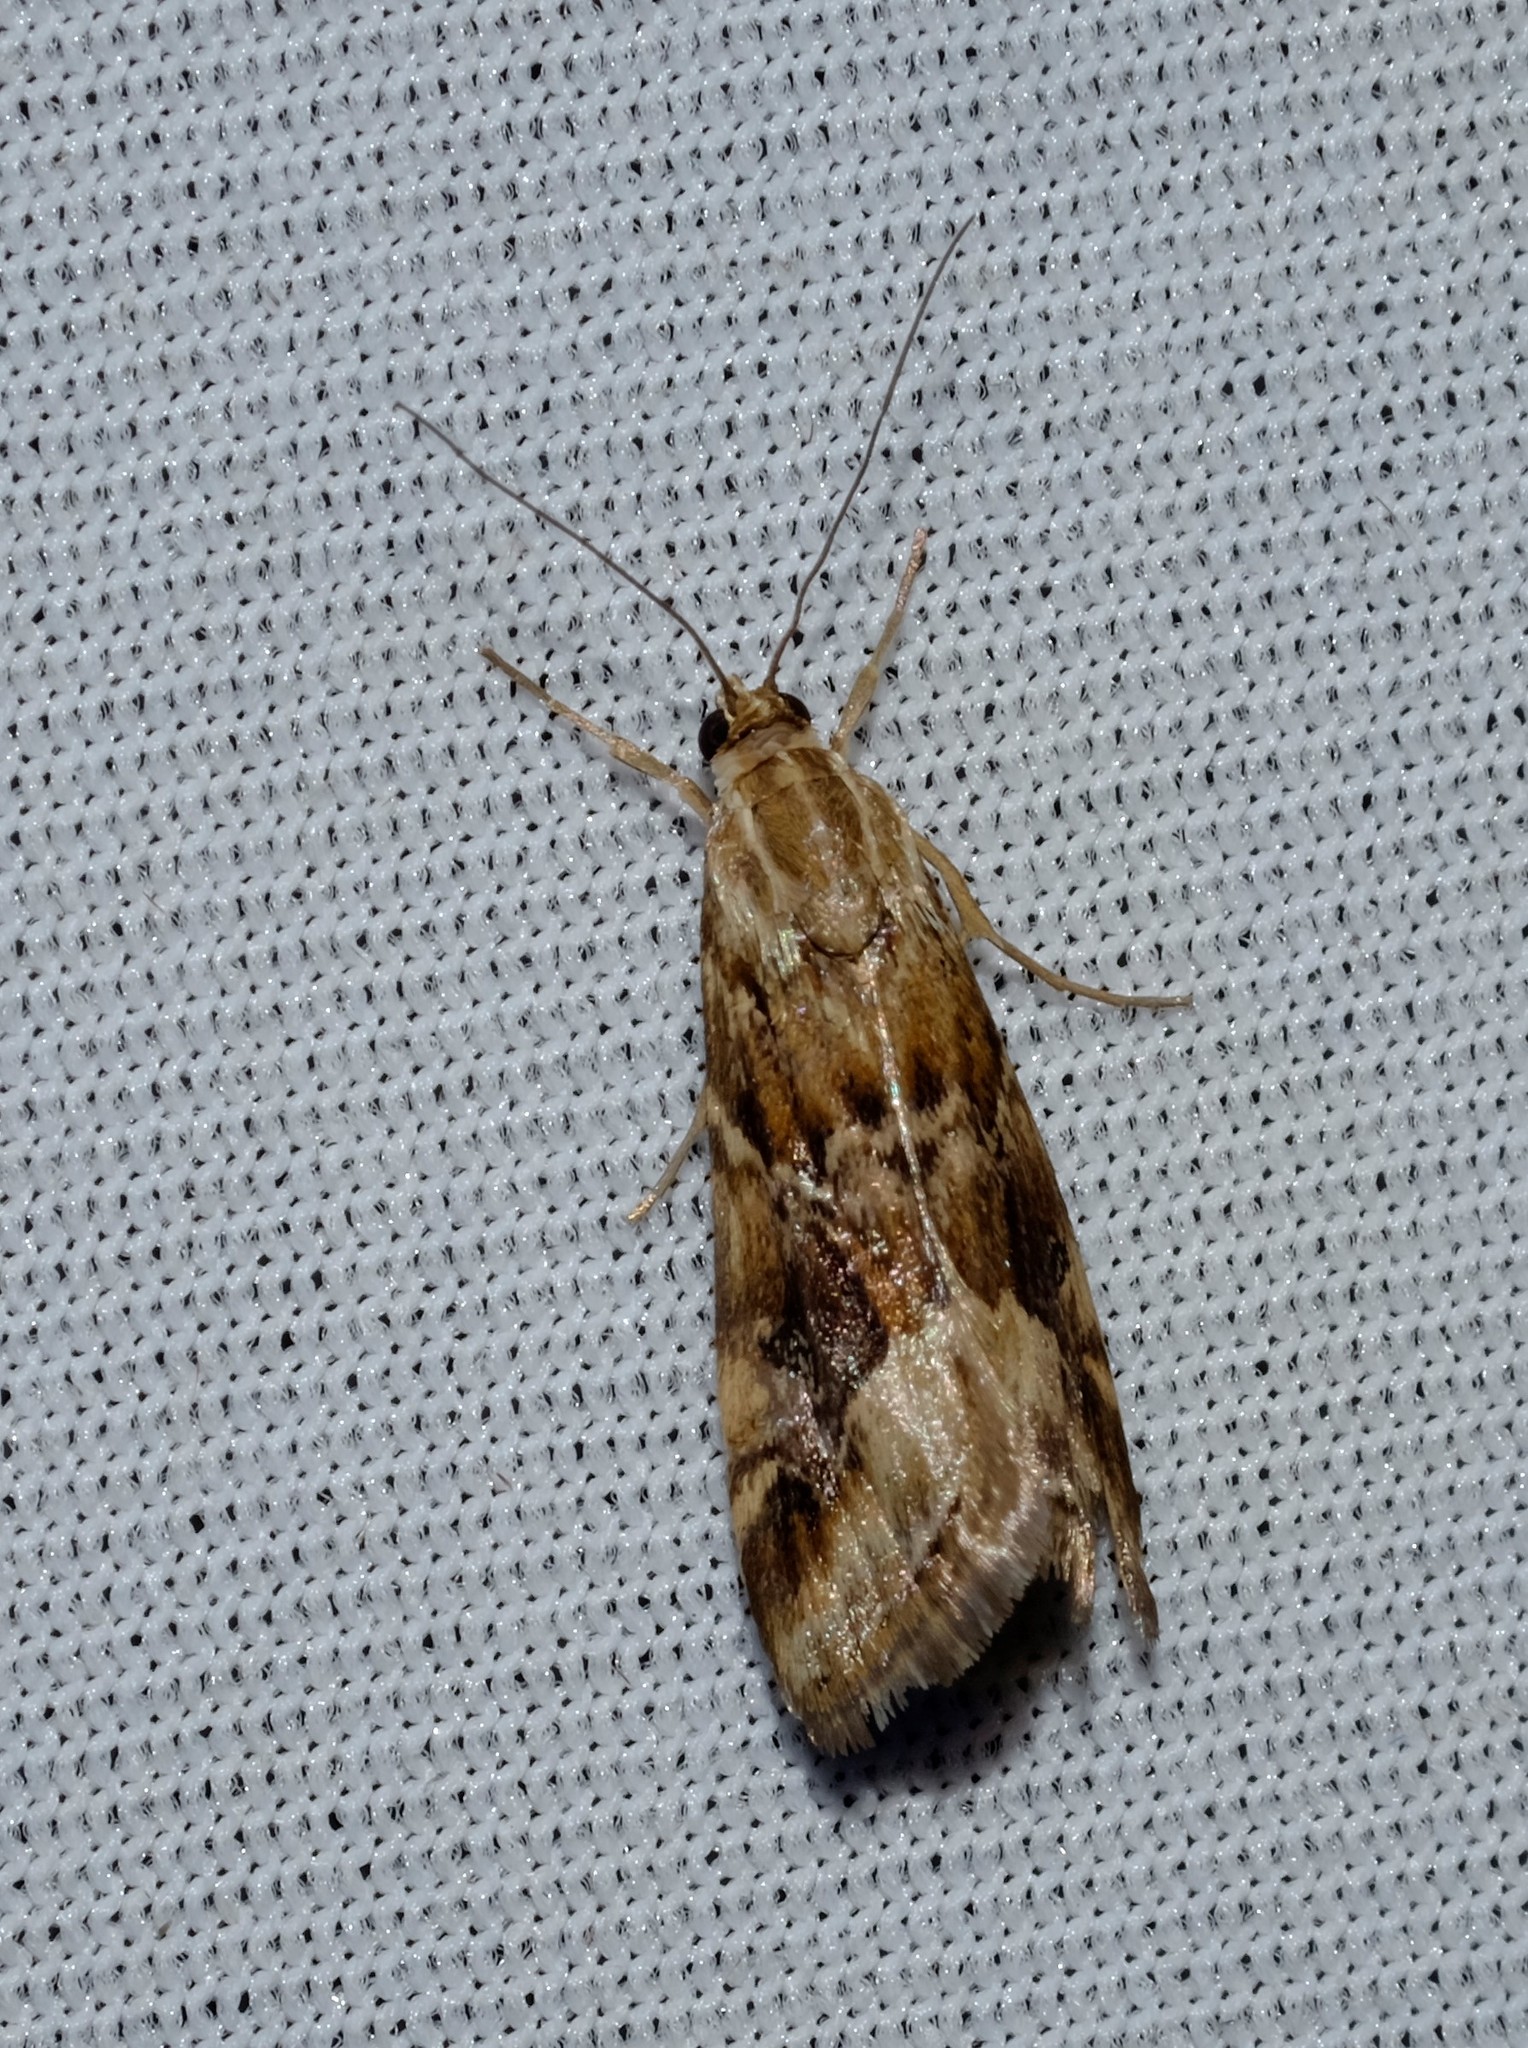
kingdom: Animalia
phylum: Arthropoda
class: Insecta
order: Lepidoptera
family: Crambidae
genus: Hellula
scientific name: Hellula hydralis
